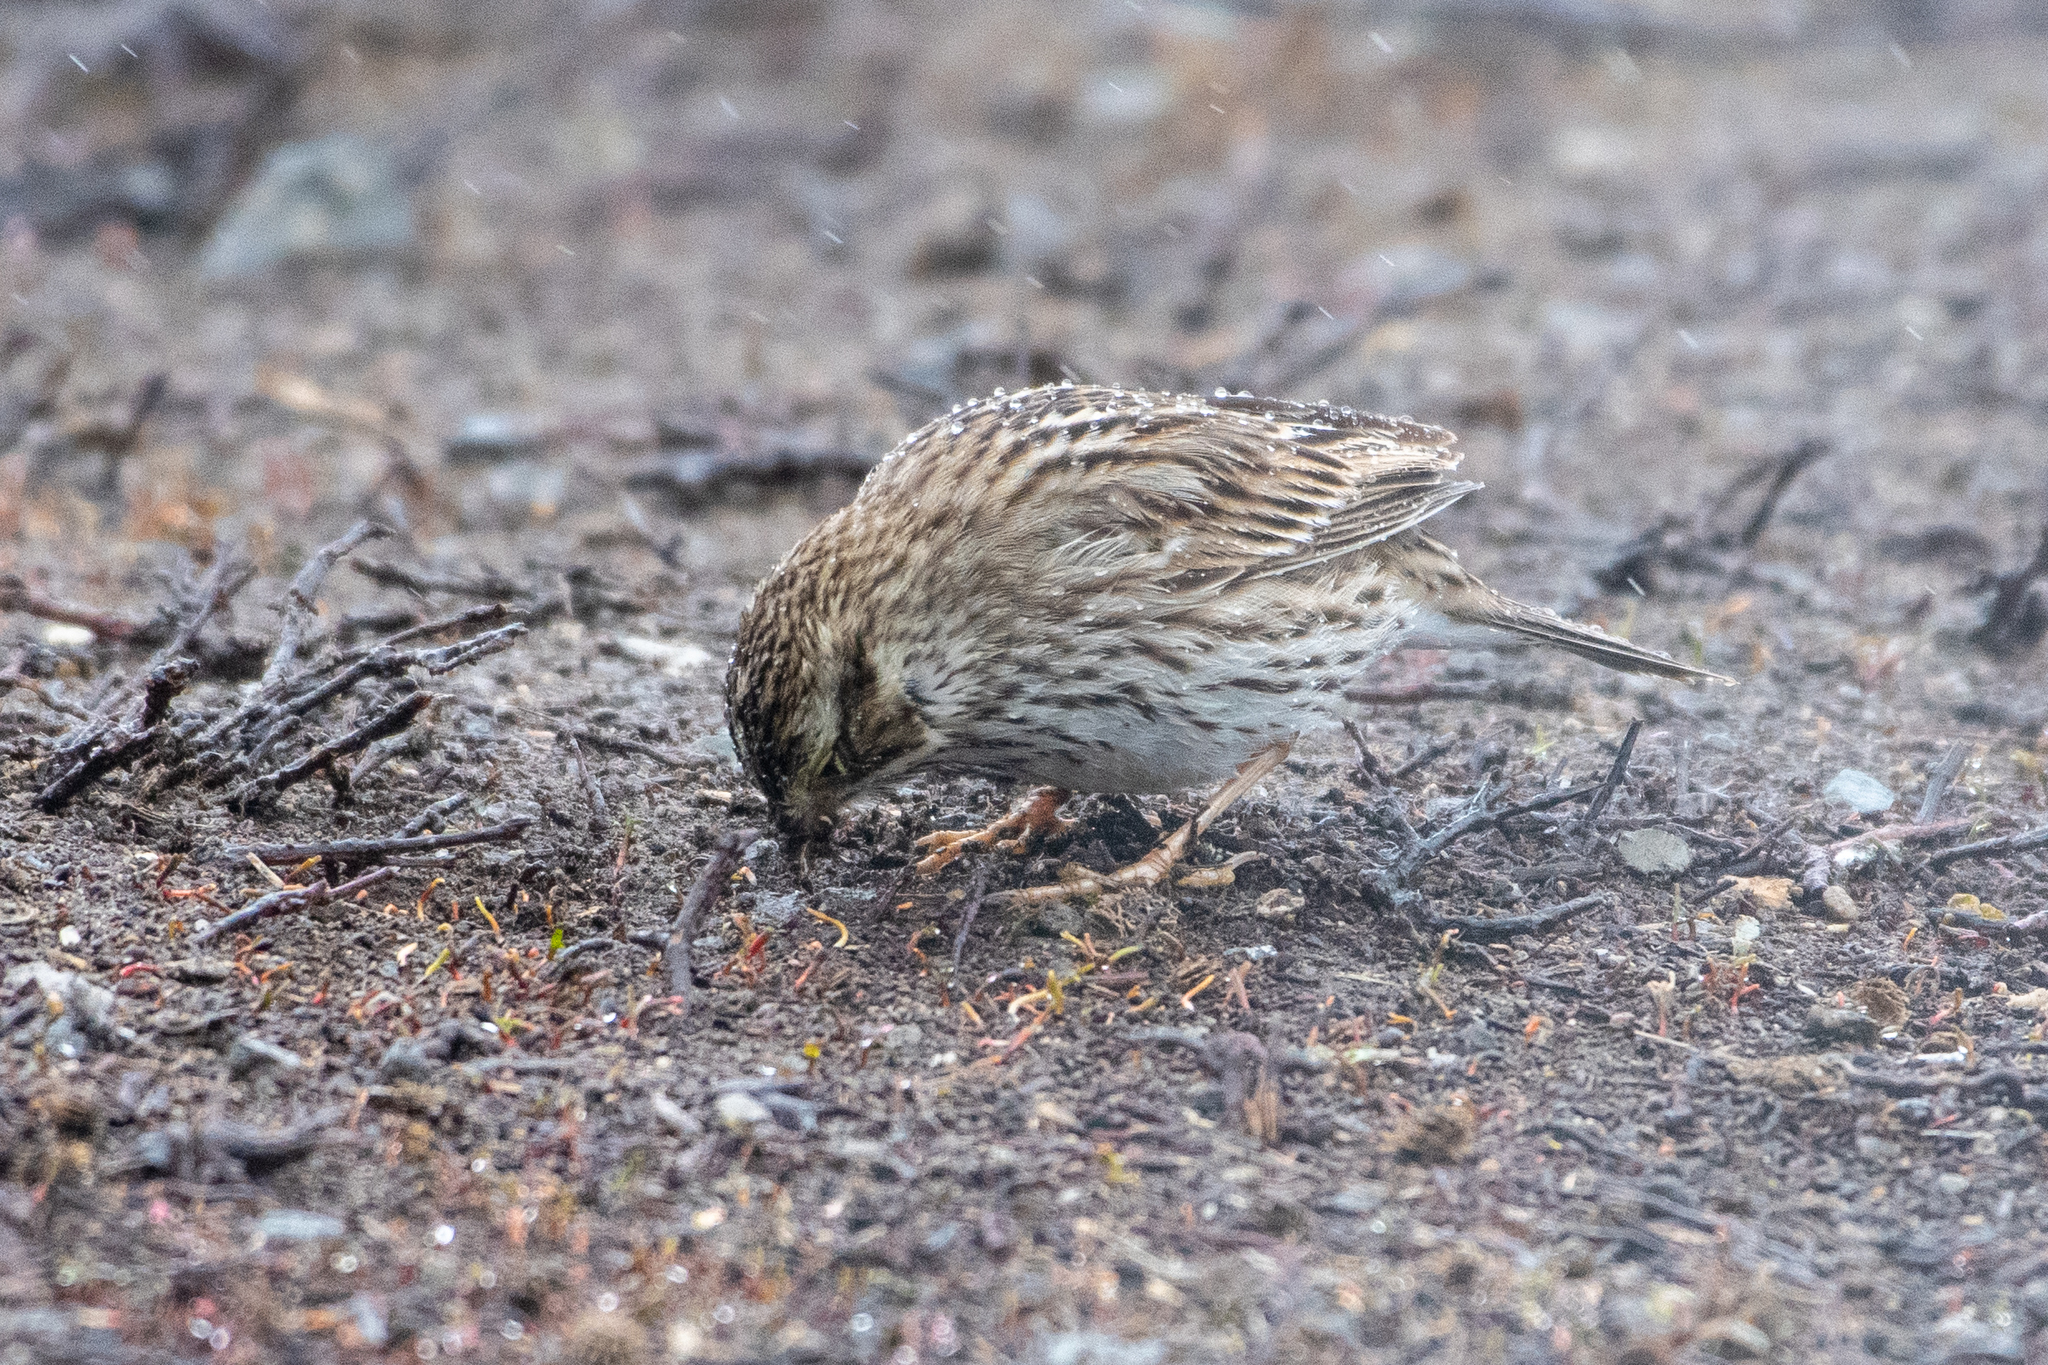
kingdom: Animalia
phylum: Chordata
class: Aves
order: Passeriformes
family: Passerellidae
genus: Passerculus
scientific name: Passerculus sandwichensis
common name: Savannah sparrow
